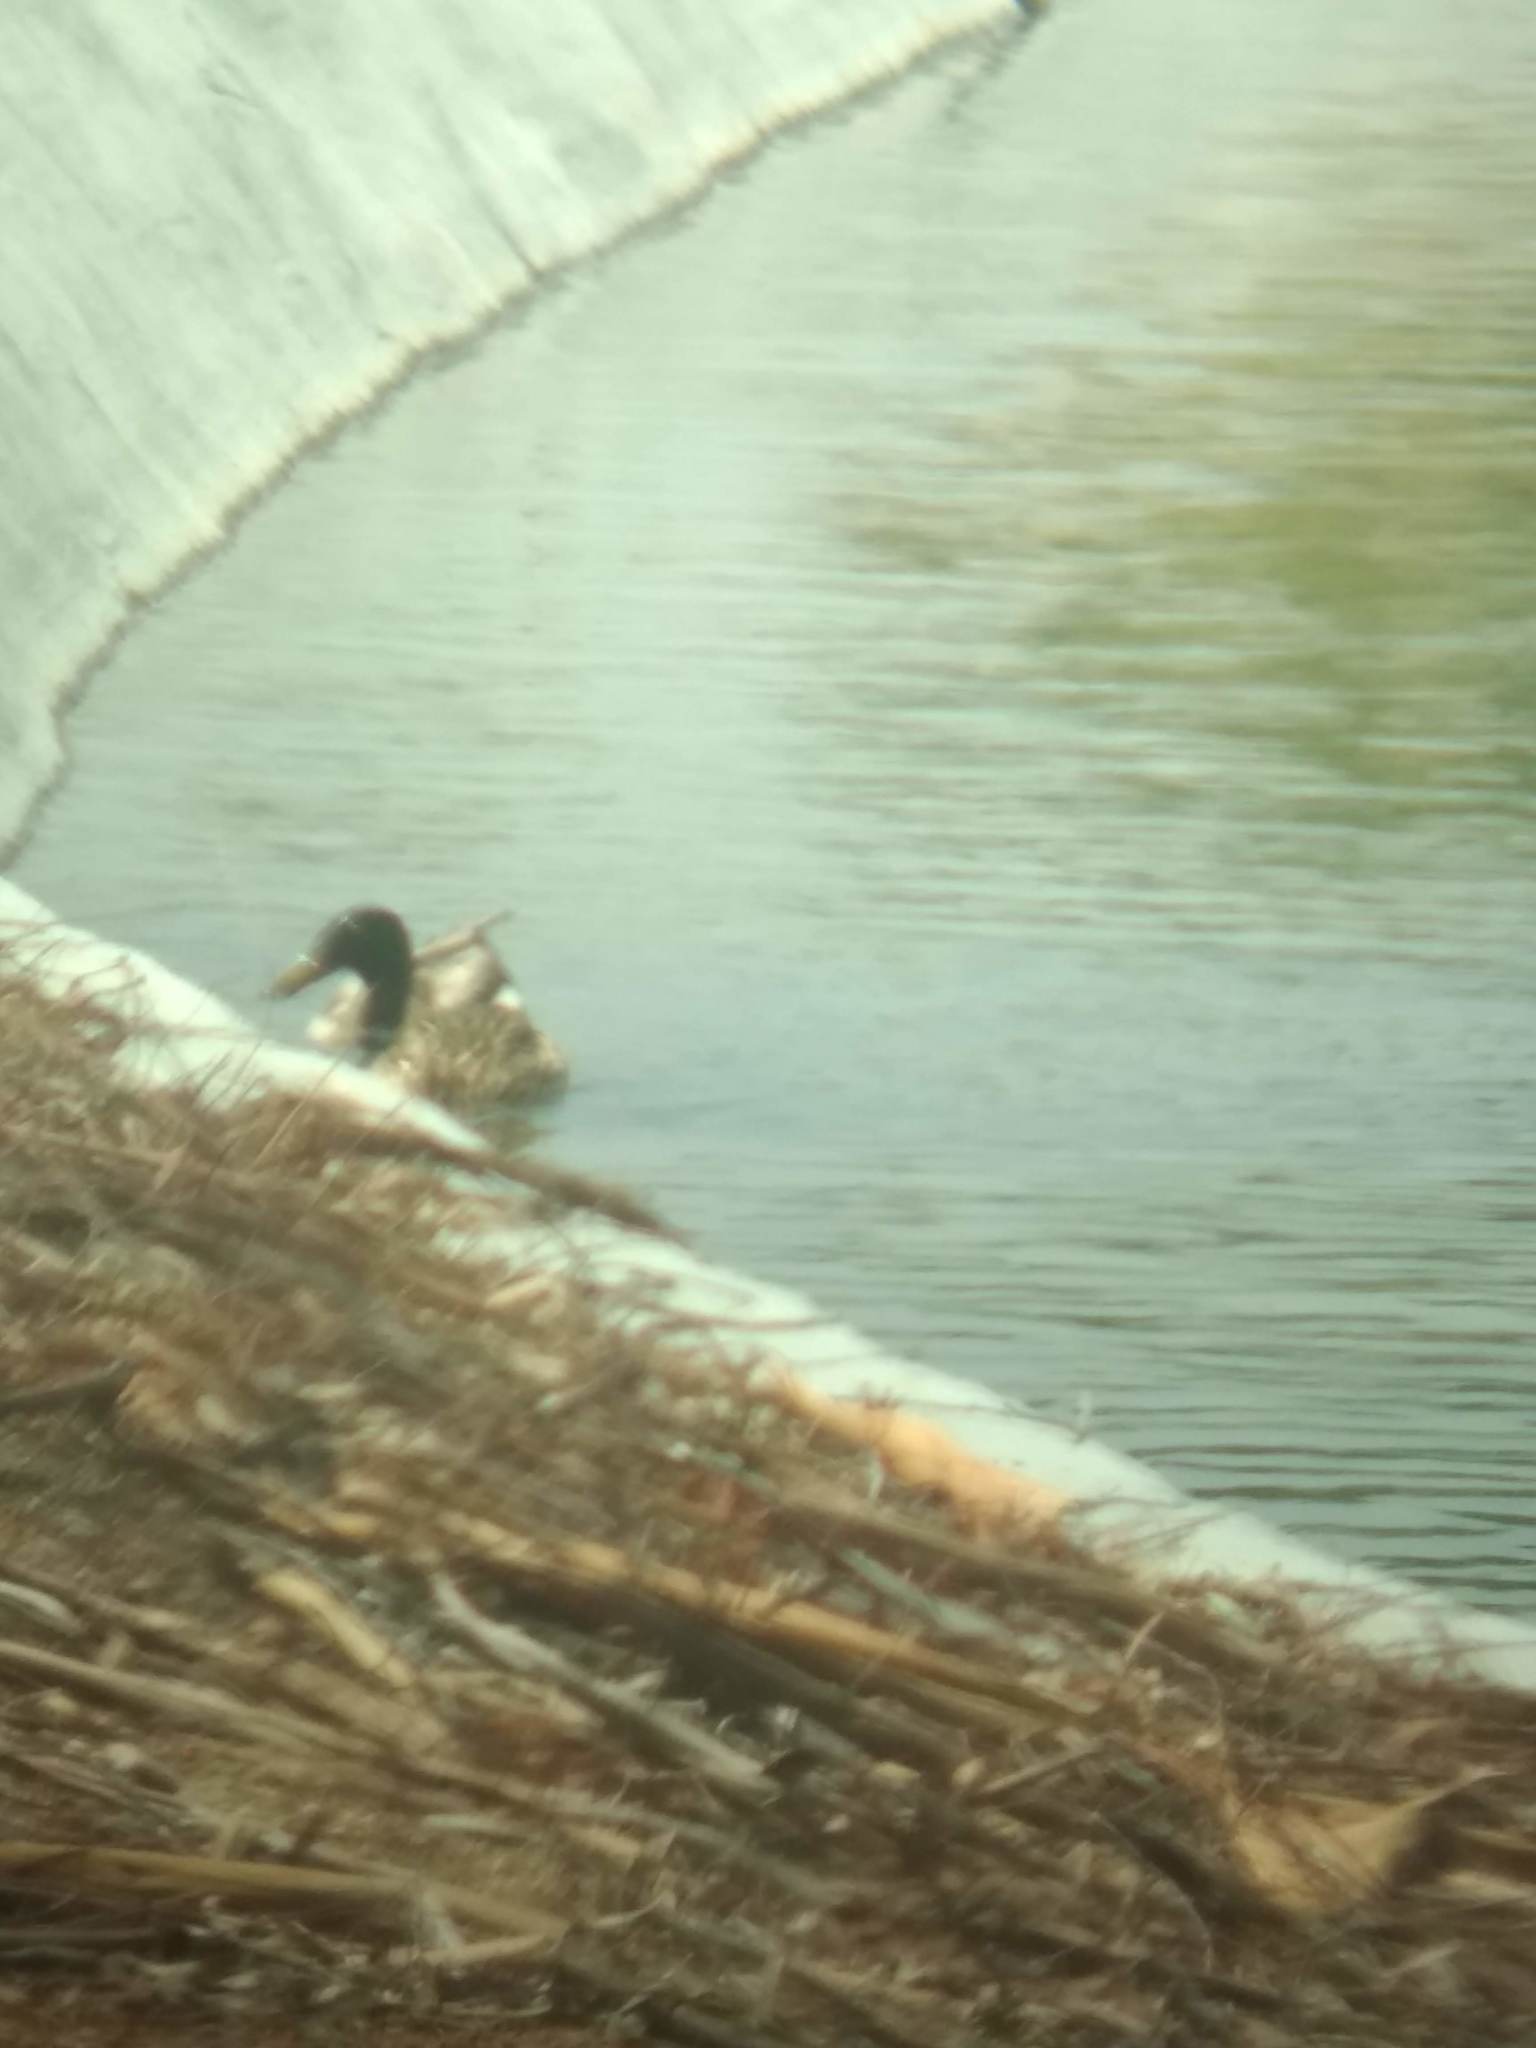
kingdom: Animalia
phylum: Chordata
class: Aves
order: Anseriformes
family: Anatidae
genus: Anas
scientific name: Anas platyrhynchos
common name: Mallard
